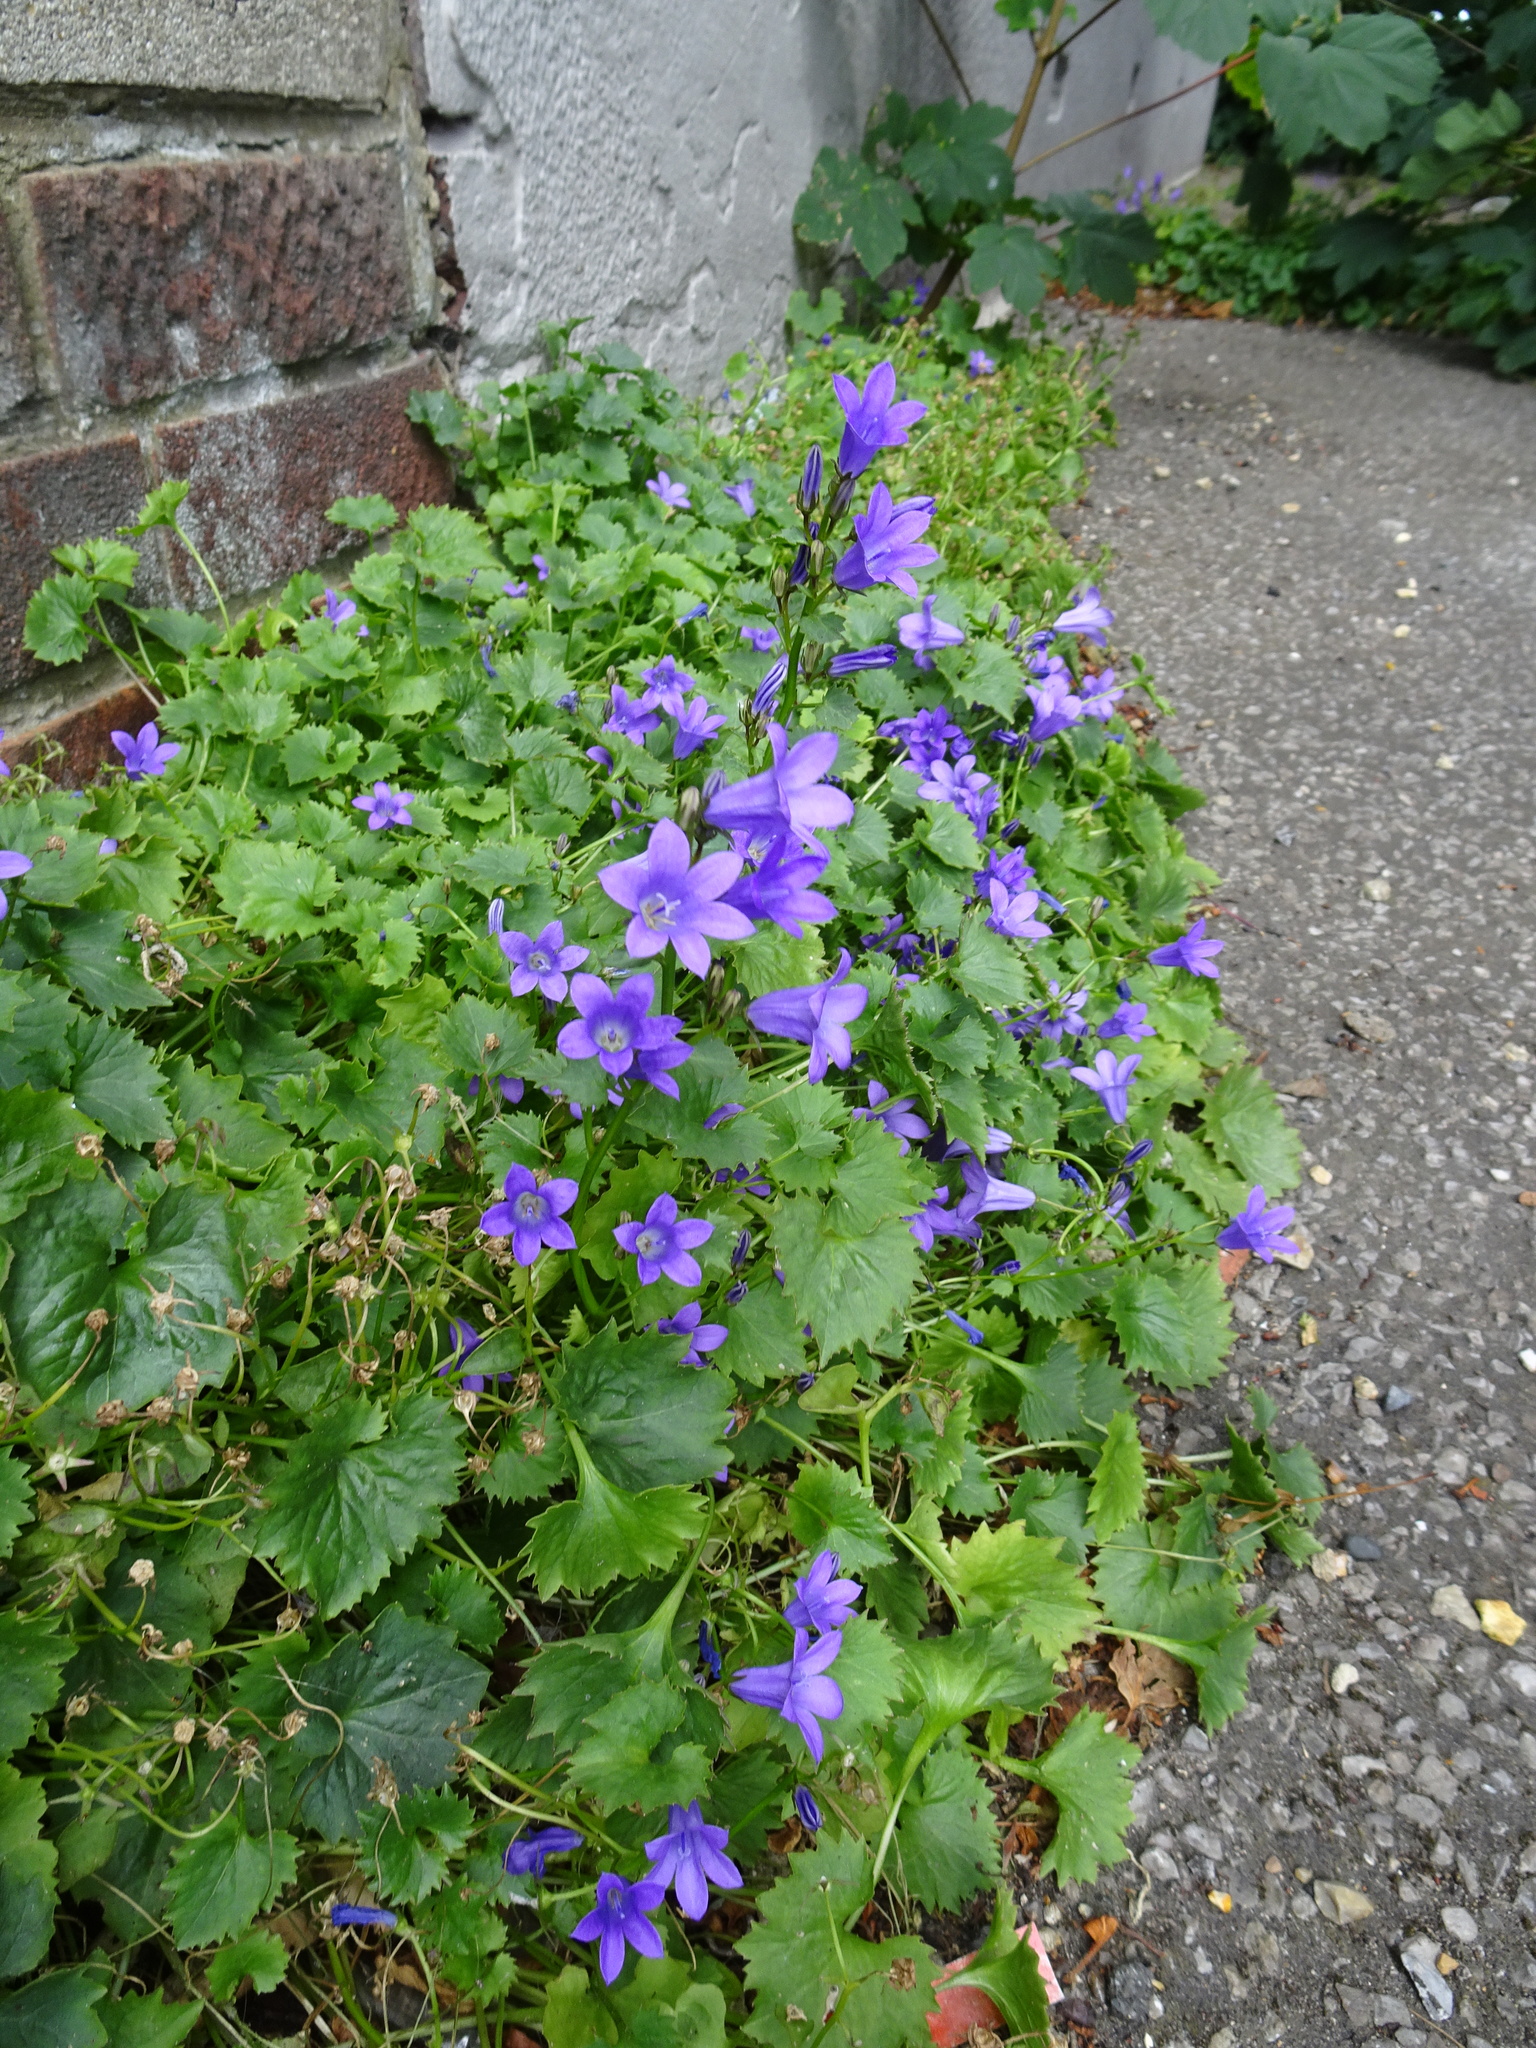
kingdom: Plantae
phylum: Tracheophyta
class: Magnoliopsida
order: Asterales
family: Campanulaceae
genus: Campanula
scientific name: Campanula portenschlagiana
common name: Adria bellflower
